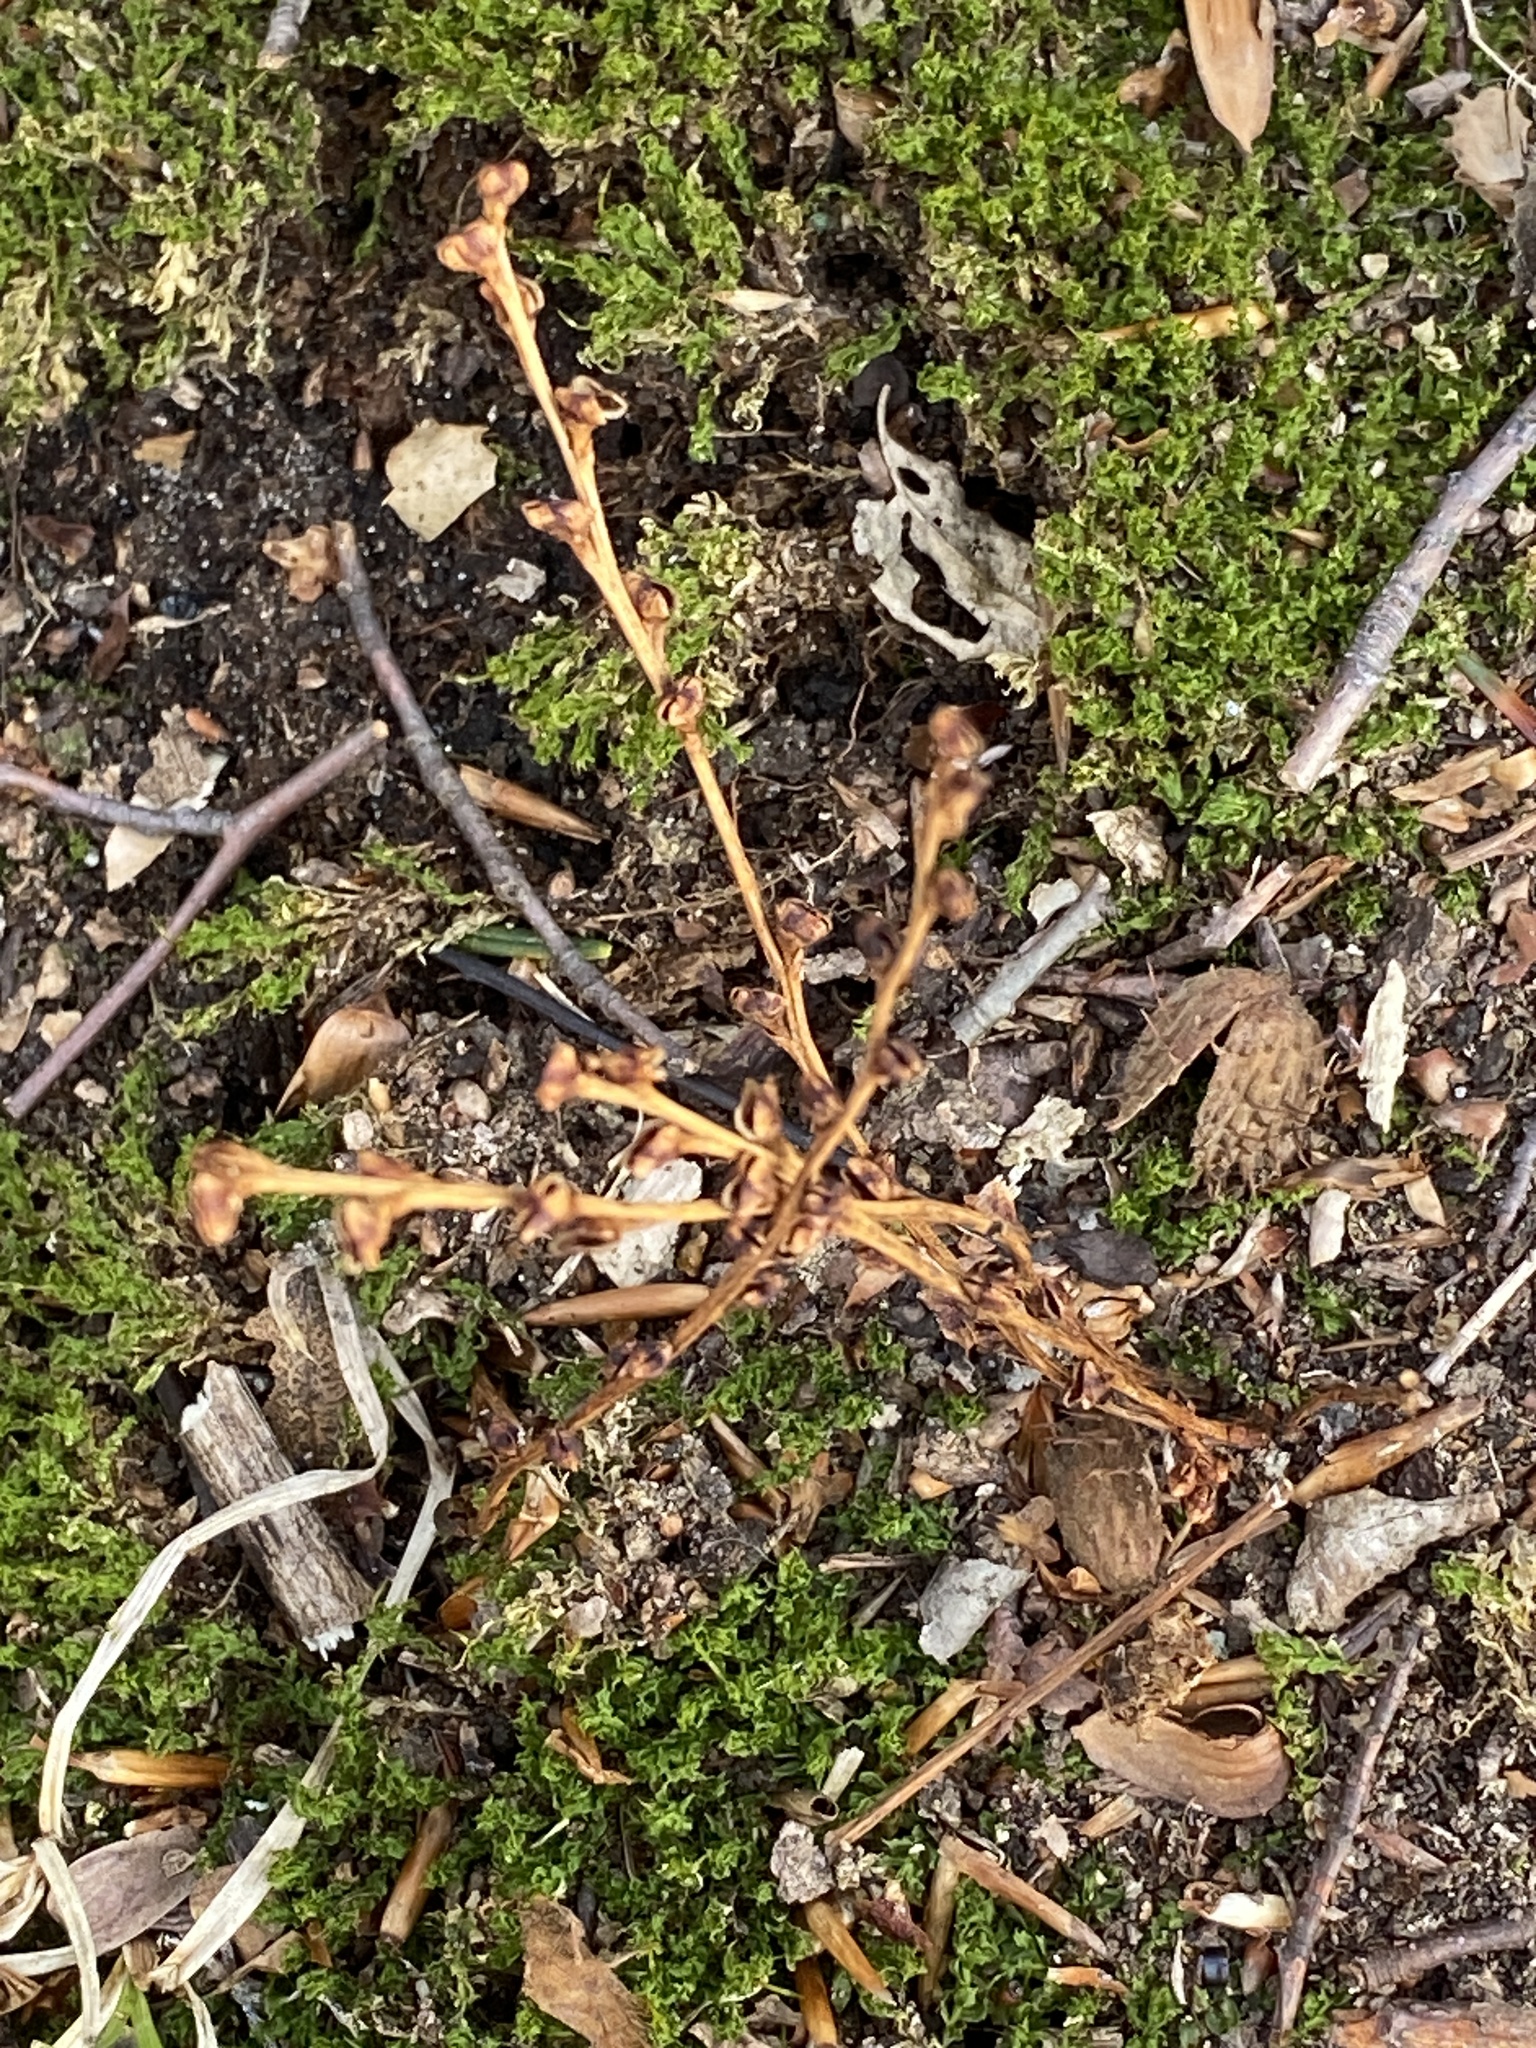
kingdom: Plantae
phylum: Tracheophyta
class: Magnoliopsida
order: Lamiales
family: Orobanchaceae
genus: Epifagus
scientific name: Epifagus virginiana
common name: Beechdrops
